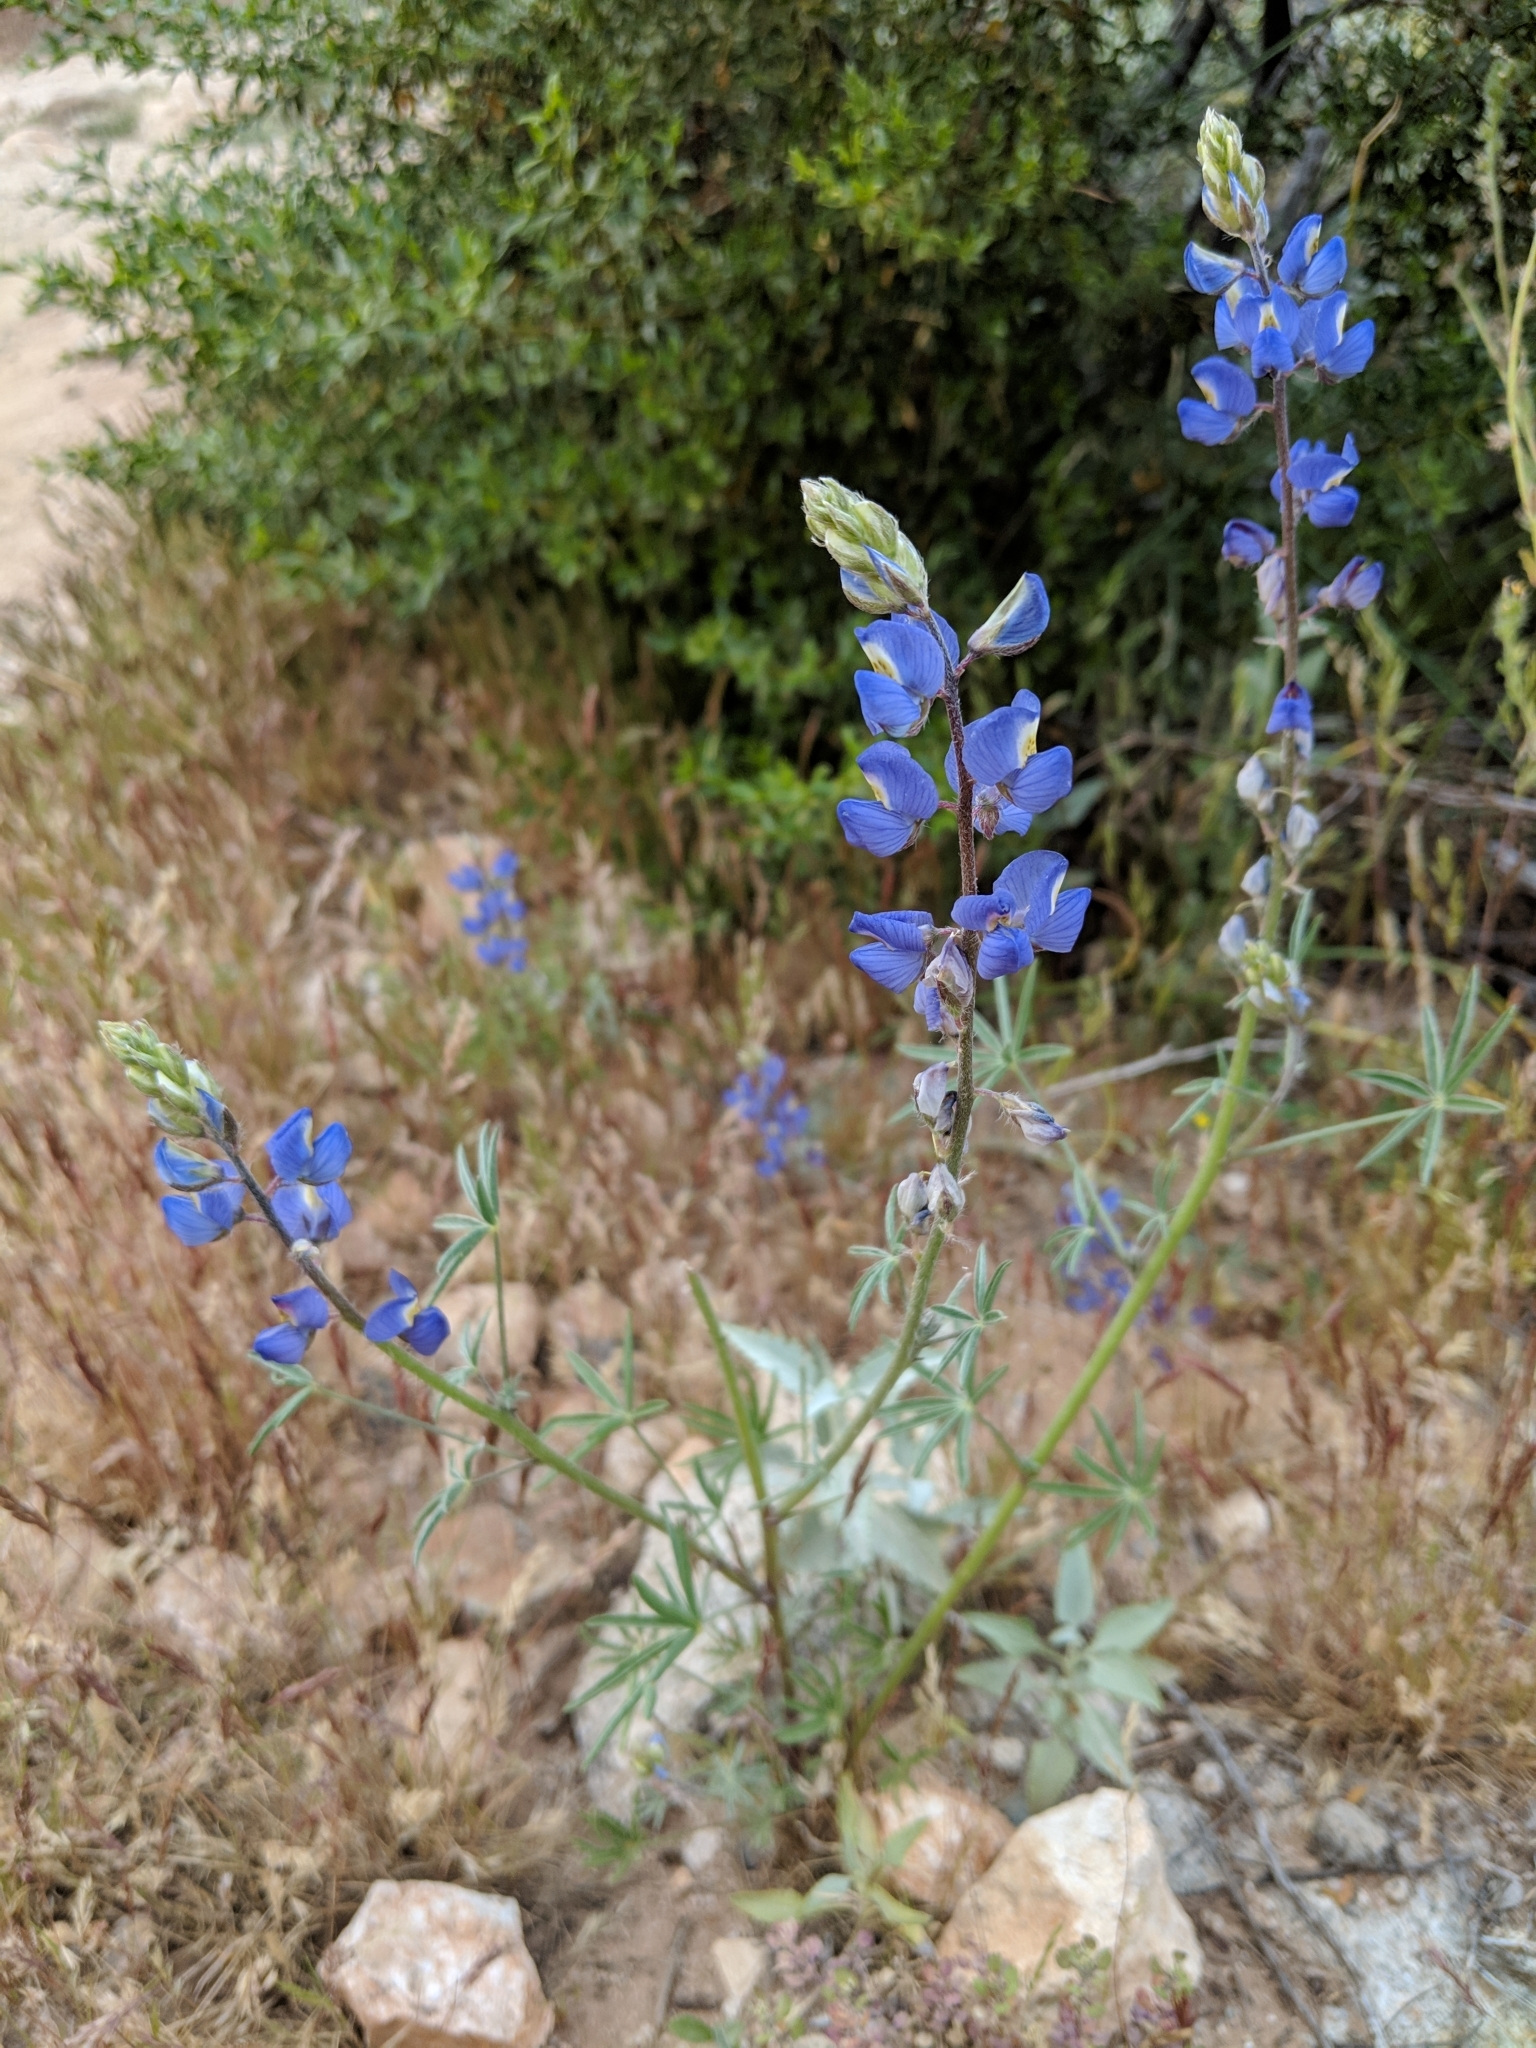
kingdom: Plantae
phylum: Tracheophyta
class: Magnoliopsida
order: Fabales
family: Fabaceae
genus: Lupinus
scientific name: Lupinus sparsiflorus
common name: Coulter's lupine
